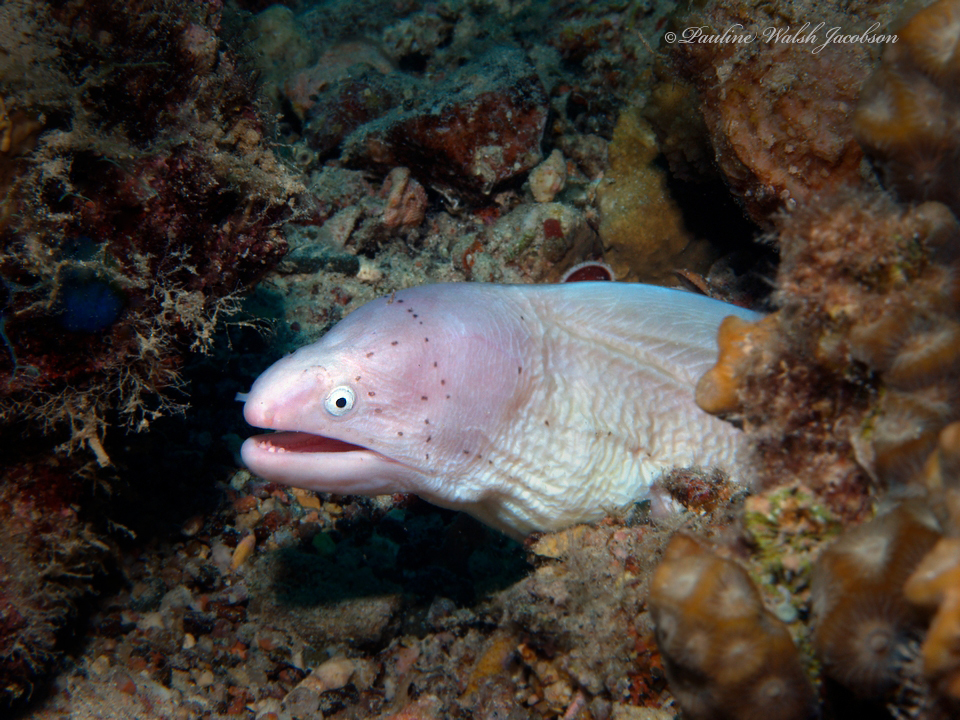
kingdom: Animalia
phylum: Chordata
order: Anguilliformes
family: Muraenidae
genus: Gymnothorax
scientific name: Gymnothorax griseus
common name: Geometric moray
